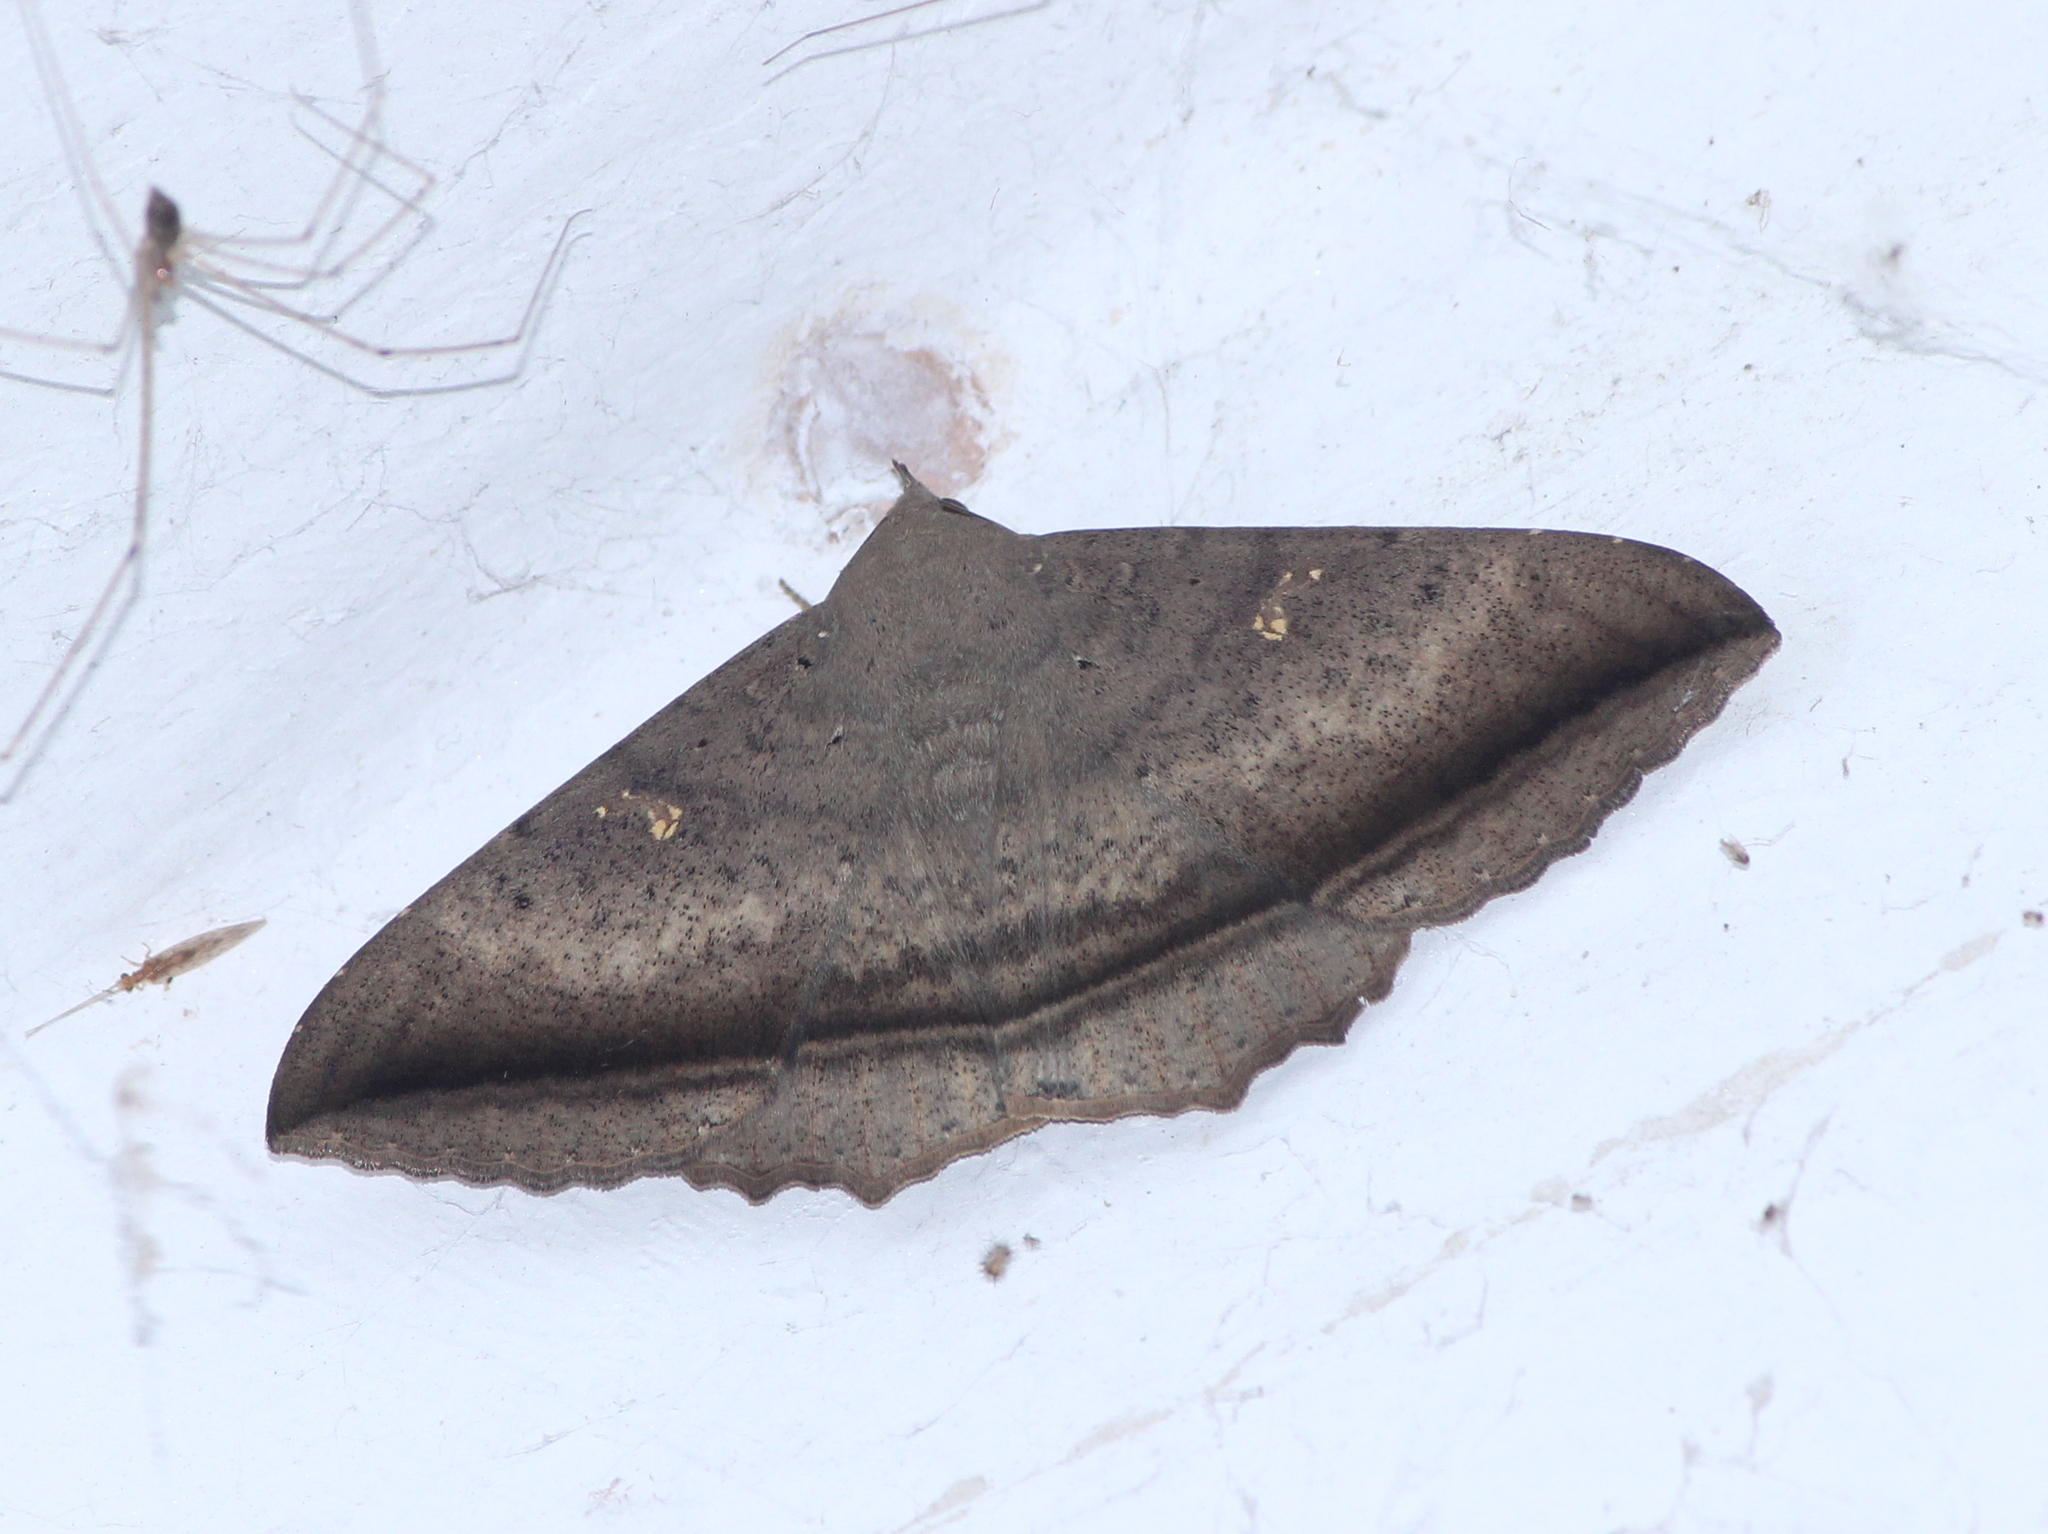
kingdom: Animalia
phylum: Arthropoda
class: Insecta
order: Lepidoptera
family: Erebidae
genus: Hulodes
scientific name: Hulodes caranea
